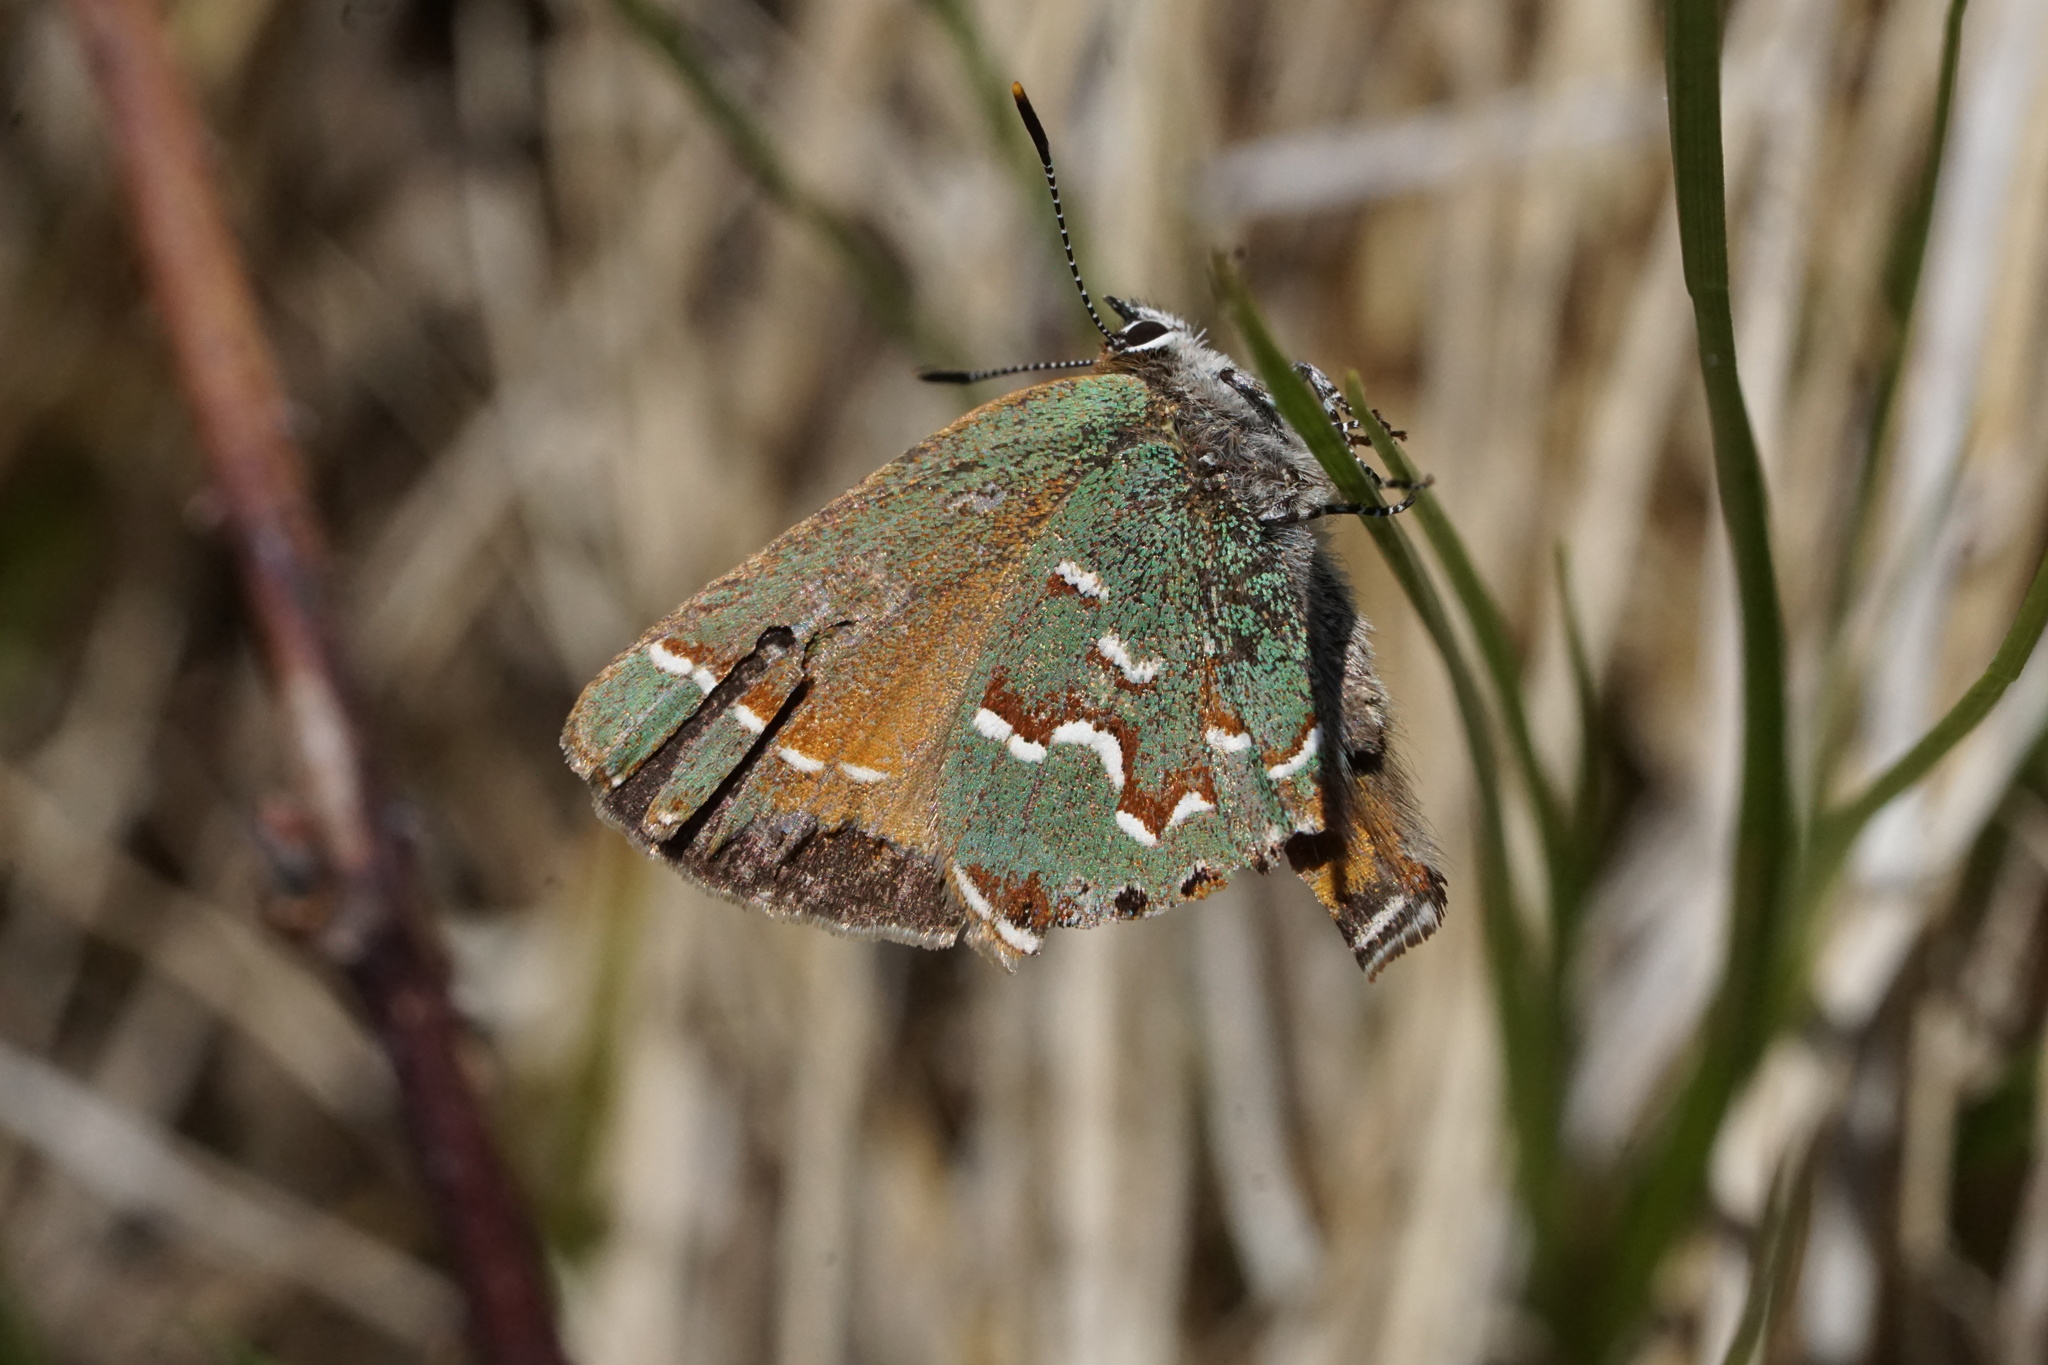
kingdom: Animalia
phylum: Arthropoda
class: Insecta
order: Lepidoptera
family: Lycaenidae
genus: Mitoura
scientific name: Mitoura gryneus
